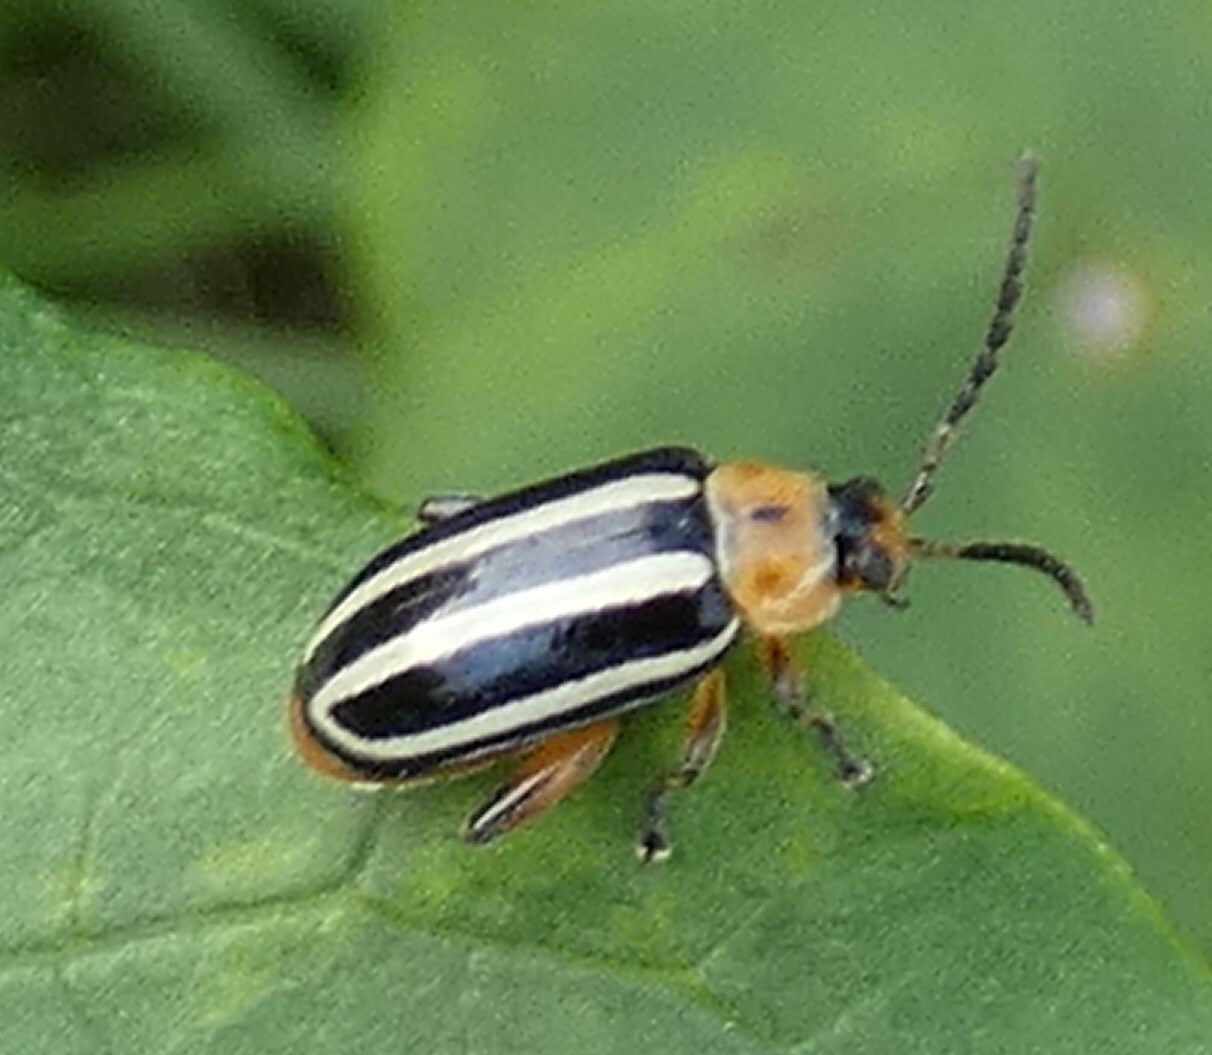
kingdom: Animalia
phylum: Arthropoda
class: Insecta
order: Coleoptera
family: Chrysomelidae
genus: Disonycha
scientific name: Disonycha glabrata
